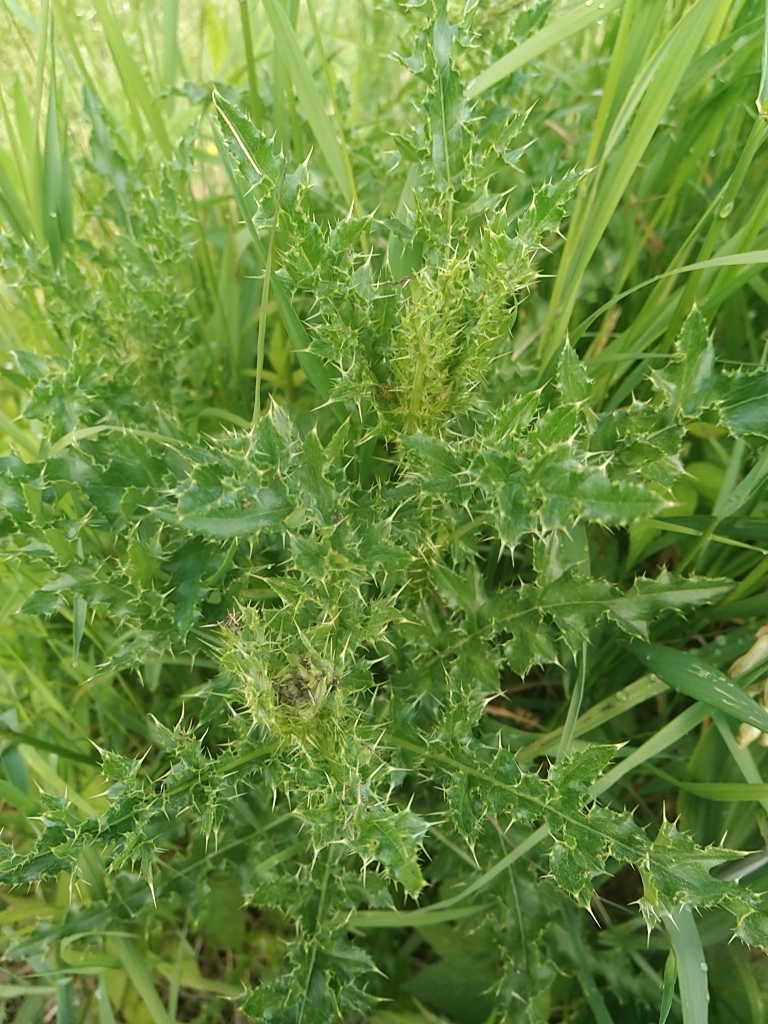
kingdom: Plantae
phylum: Tracheophyta
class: Magnoliopsida
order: Asterales
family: Asteraceae
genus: Cirsium
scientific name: Cirsium arvense
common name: Creeping thistle
